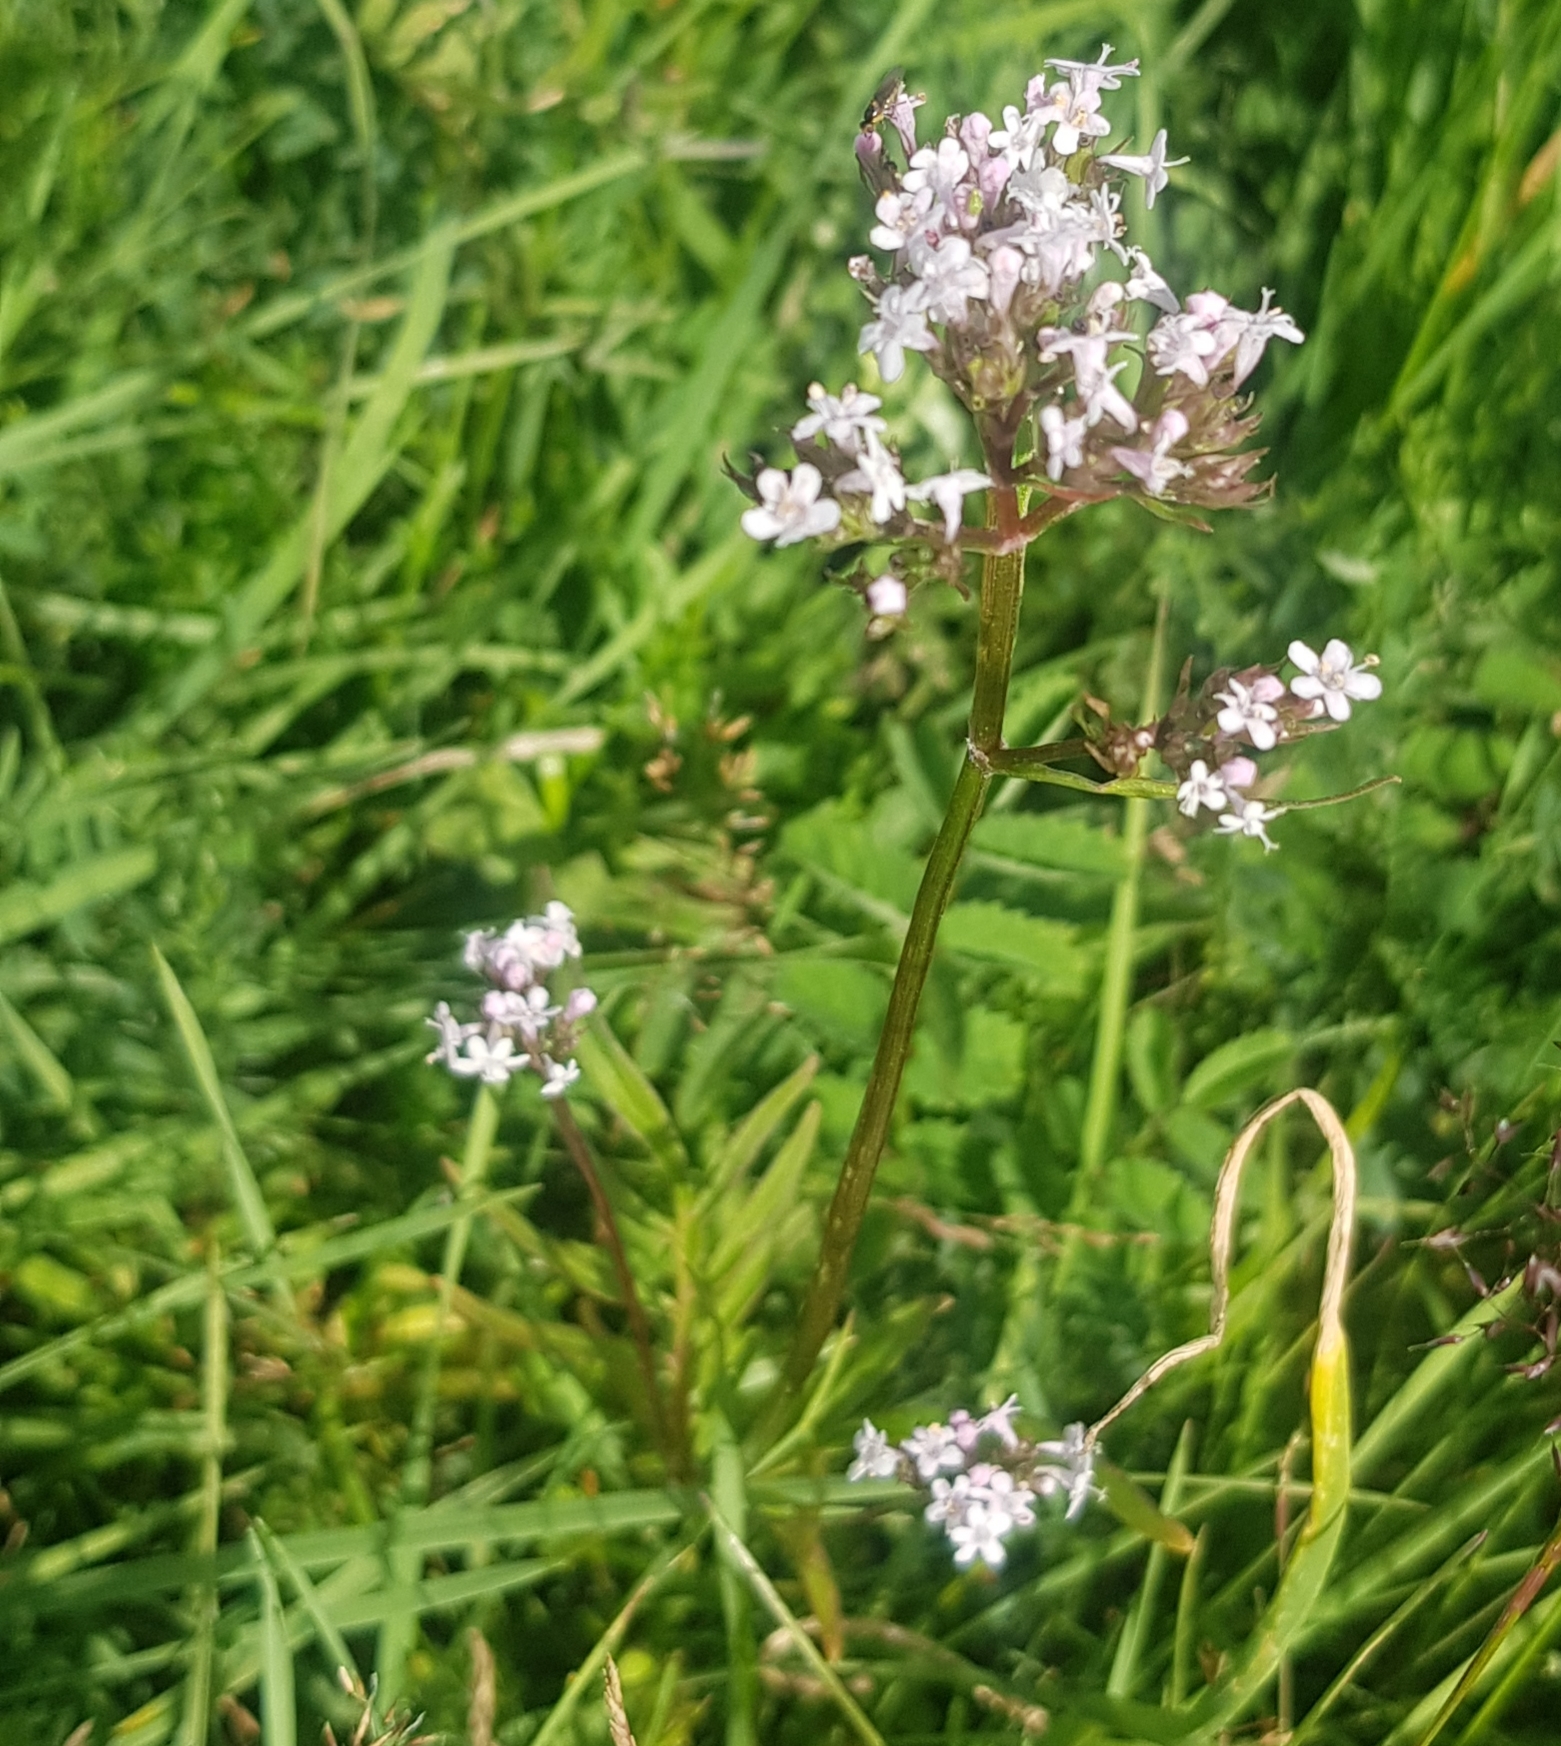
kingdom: Plantae
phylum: Tracheophyta
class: Magnoliopsida
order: Dipsacales
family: Caprifoliaceae
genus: Valeriana
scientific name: Valeriana officinalis
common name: Common valerian
